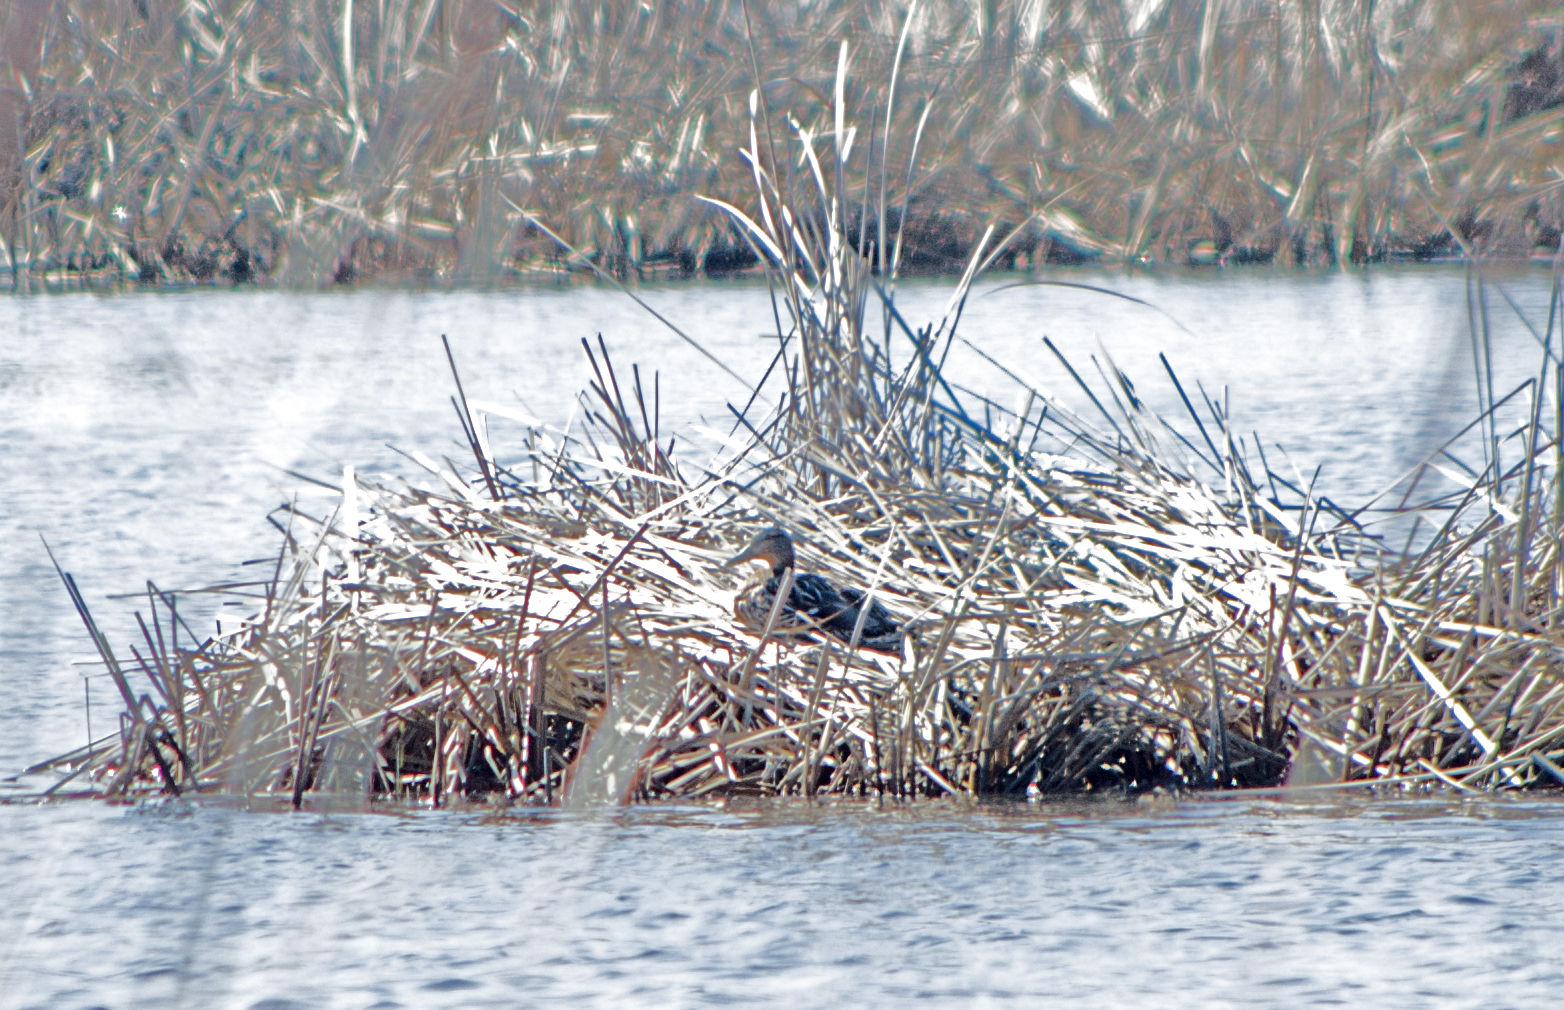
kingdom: Animalia
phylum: Chordata
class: Aves
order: Anseriformes
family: Anatidae
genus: Anas
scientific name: Anas platyrhynchos
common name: Mallard
